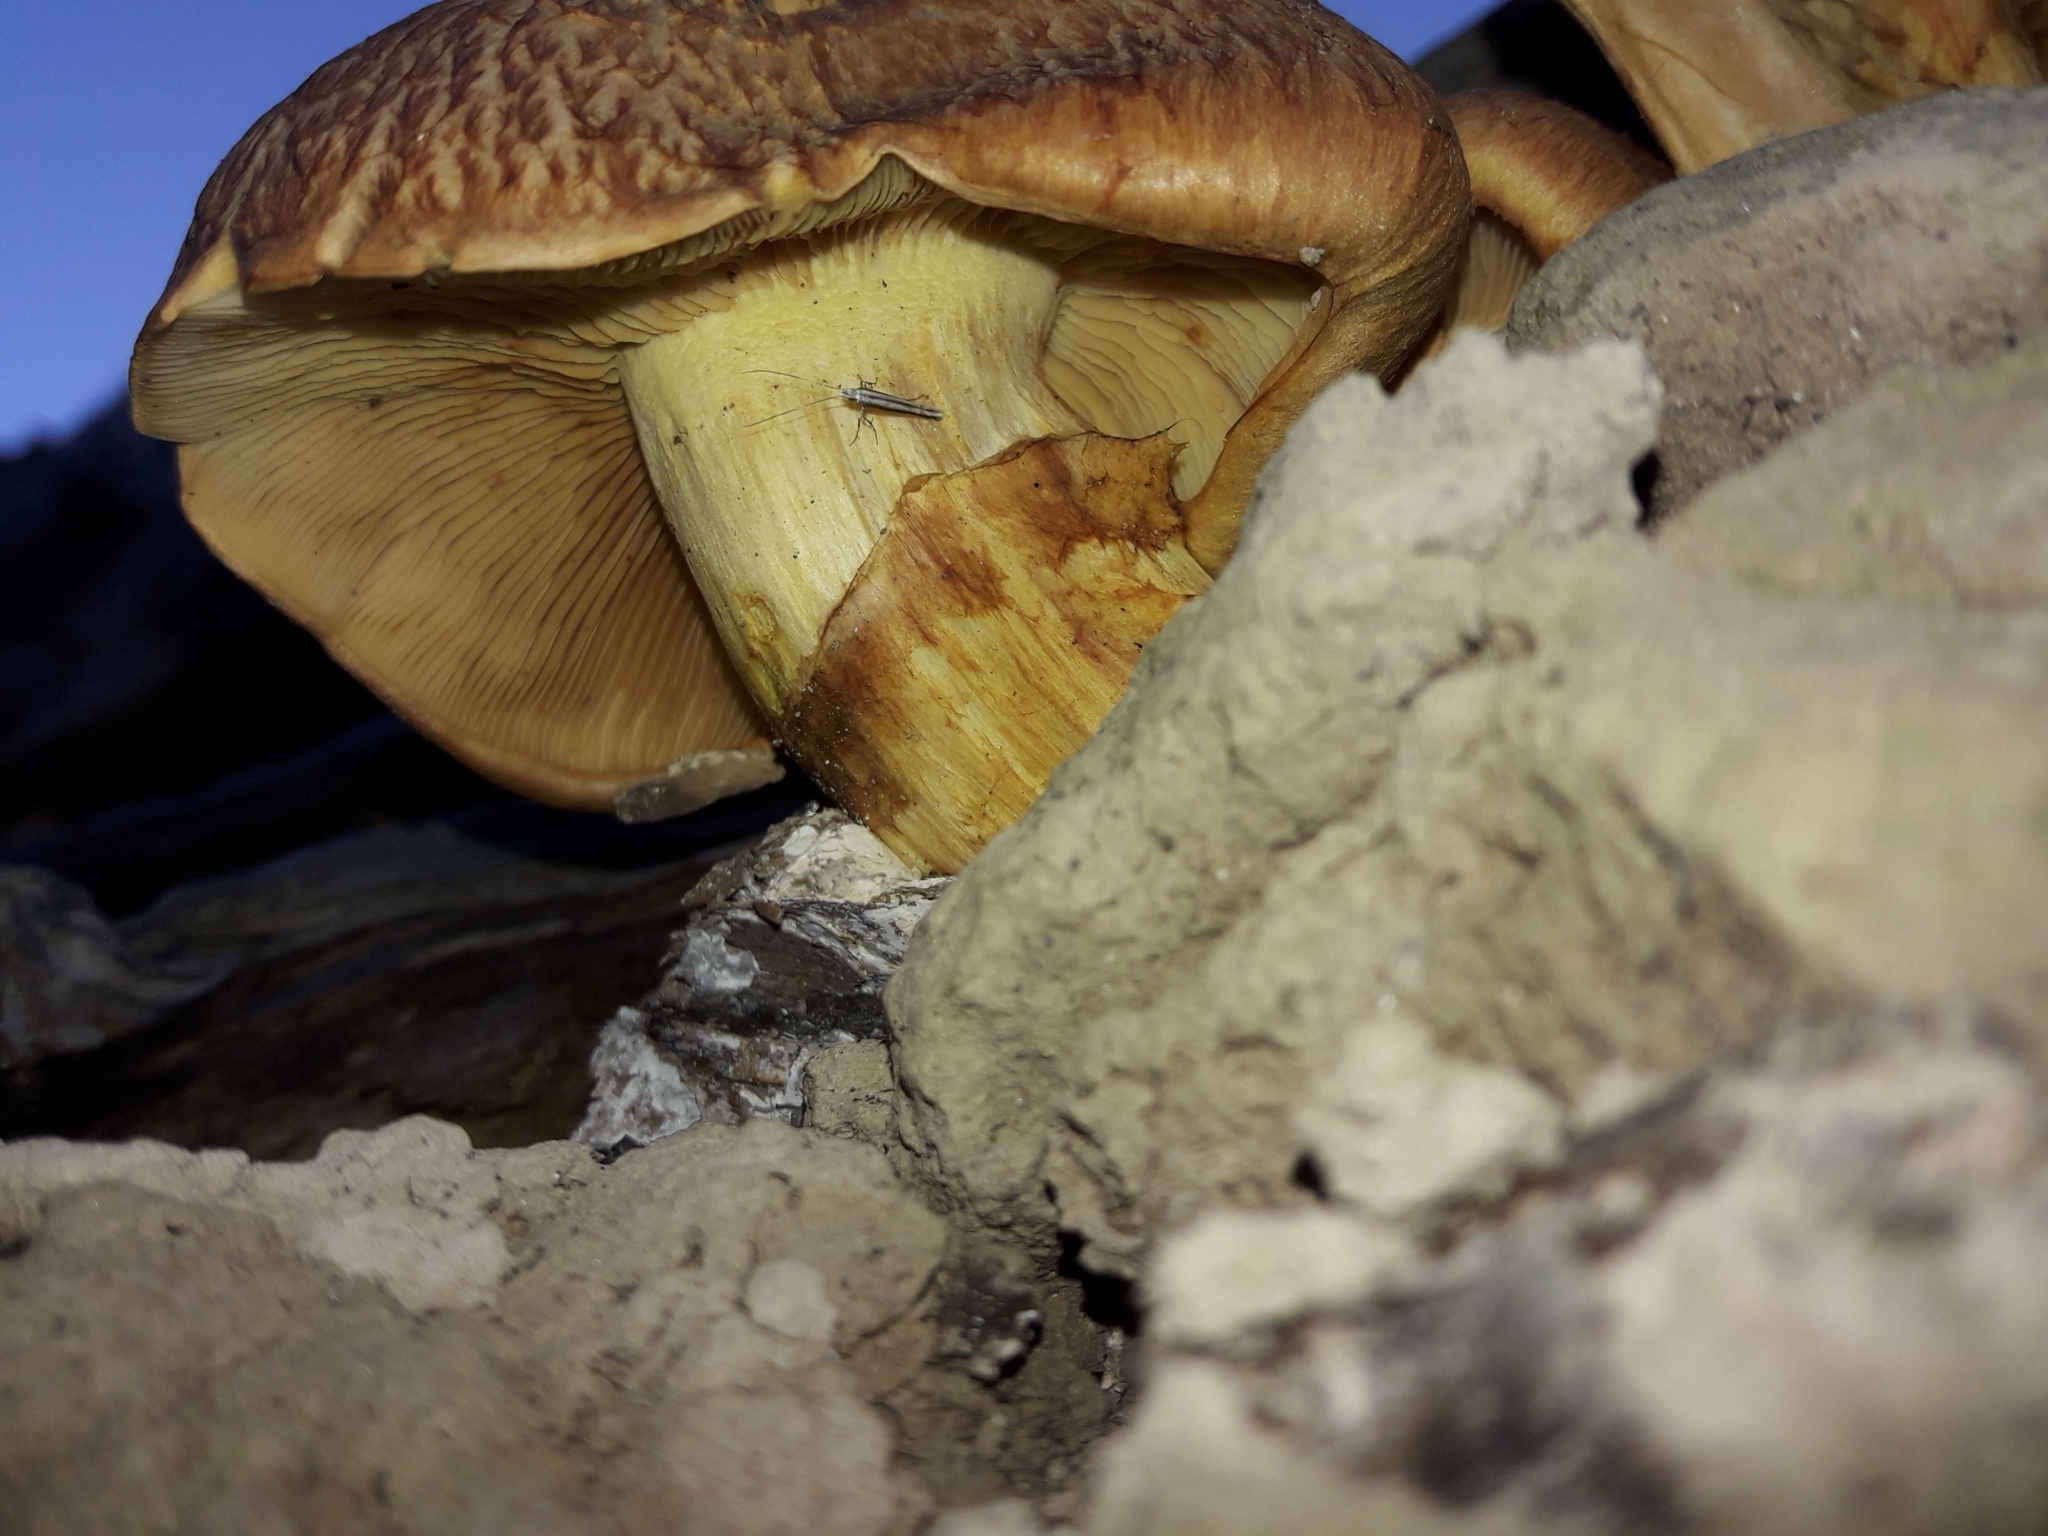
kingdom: Fungi
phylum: Basidiomycota
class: Agaricomycetes
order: Agaricales
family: Hymenogastraceae
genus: Gymnopilus
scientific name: Gymnopilus junonius
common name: Spectacular rustgill
